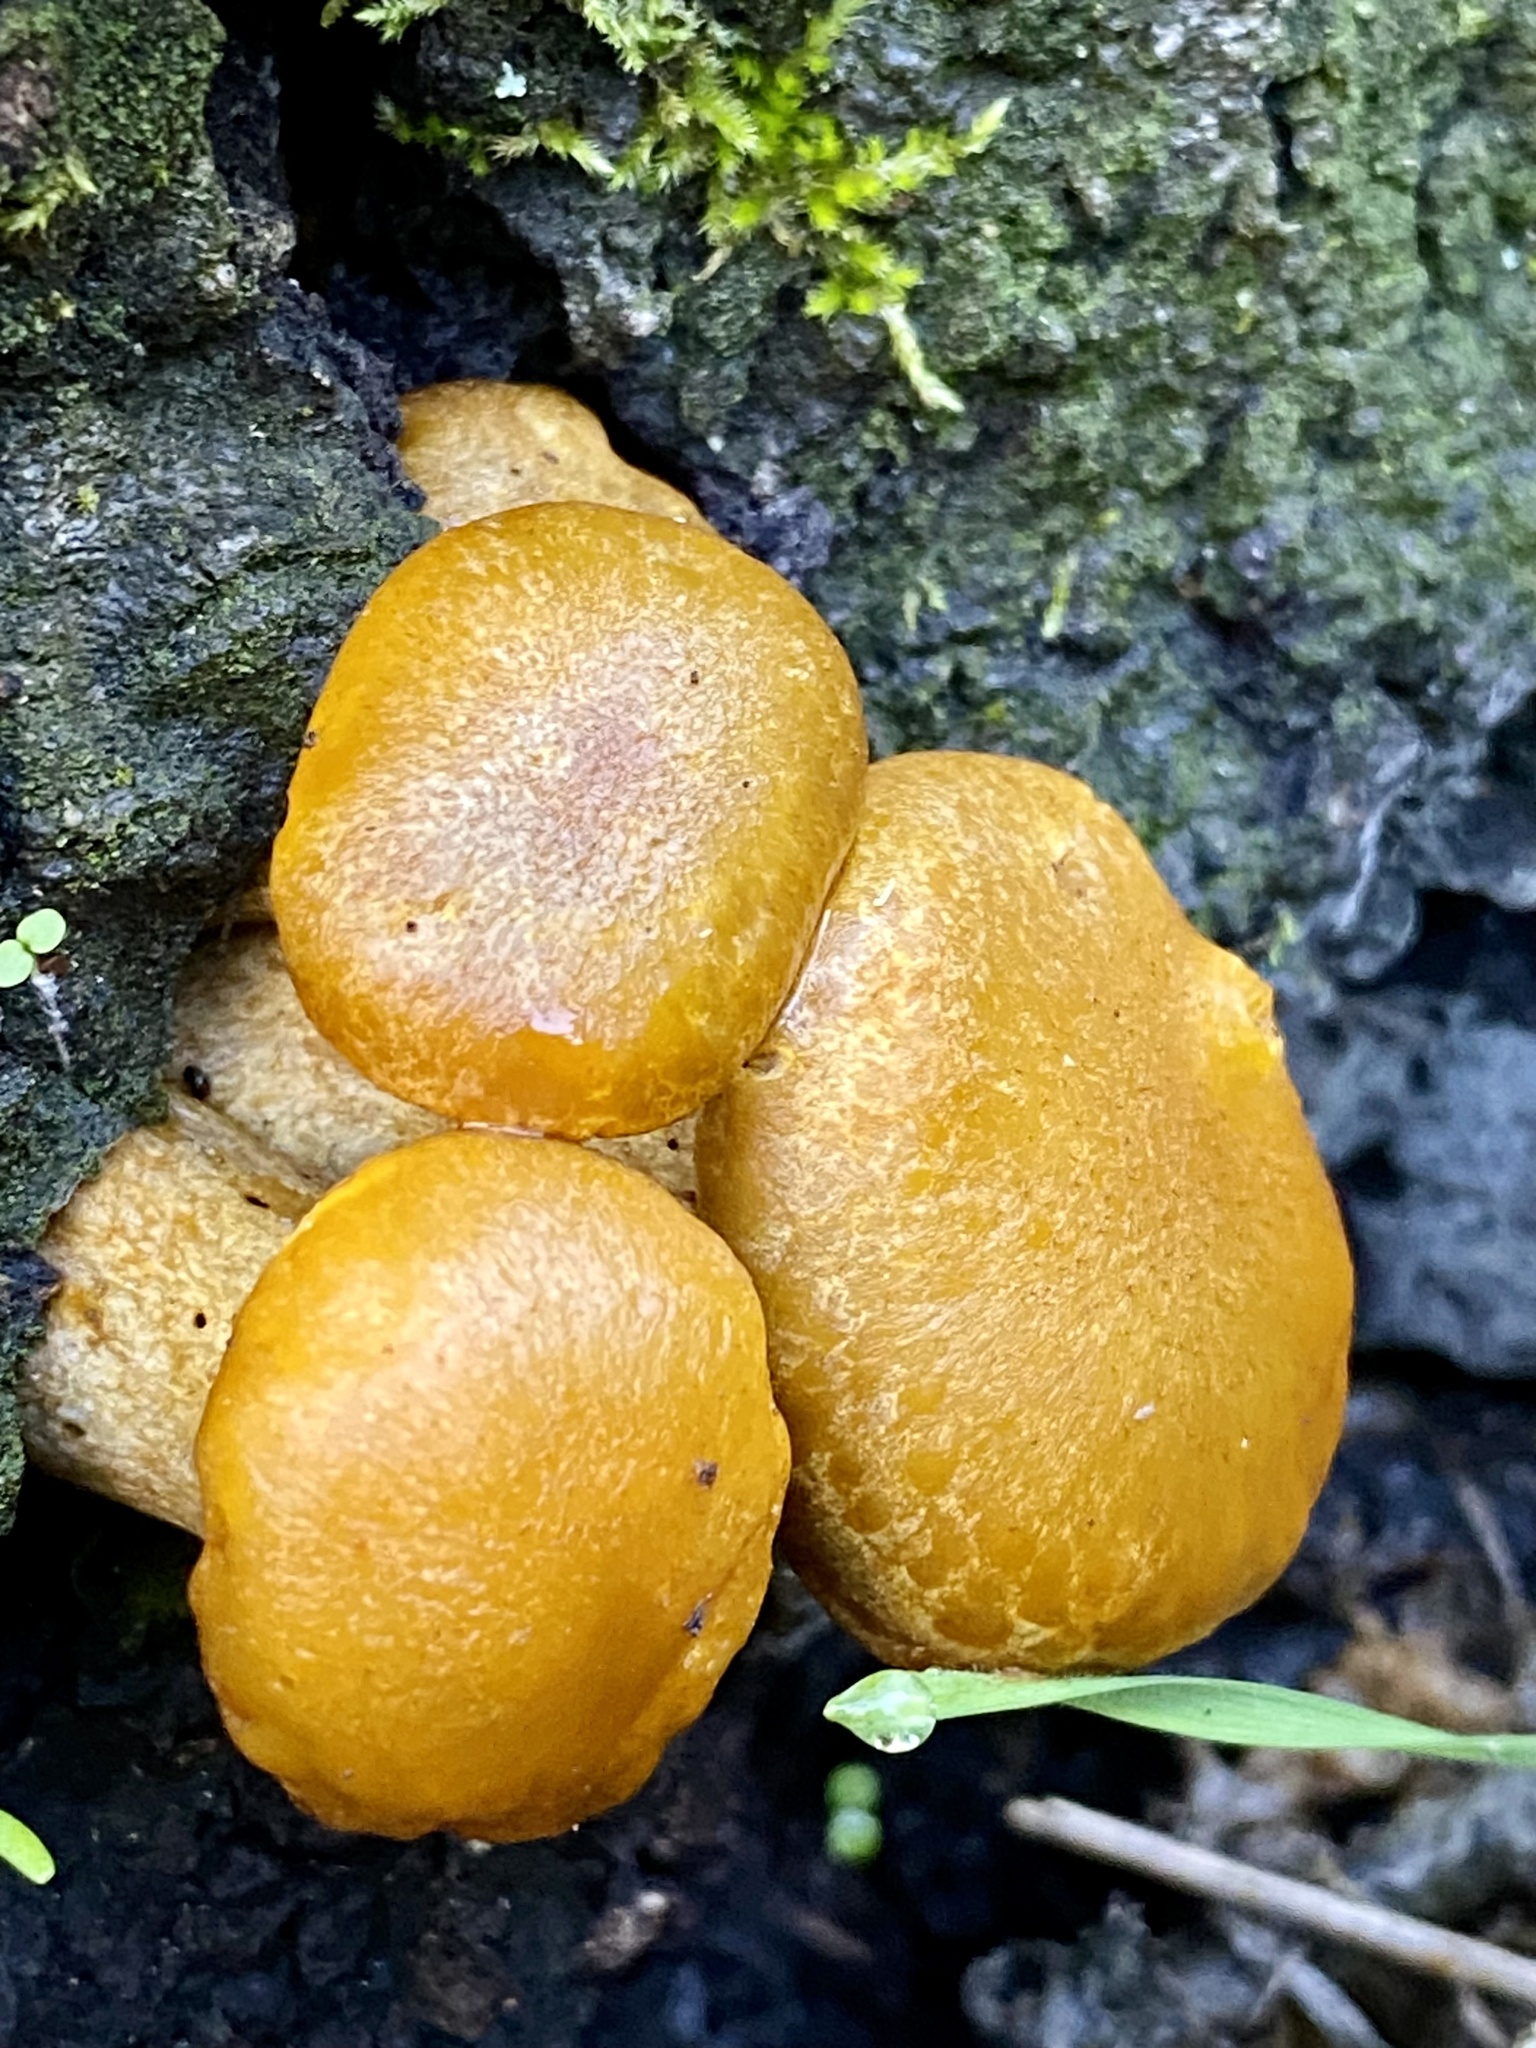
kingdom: Fungi
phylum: Basidiomycota
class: Agaricomycetes
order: Agaricales
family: Hymenogastraceae
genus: Gymnopilus
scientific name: Gymnopilus ventricosus
